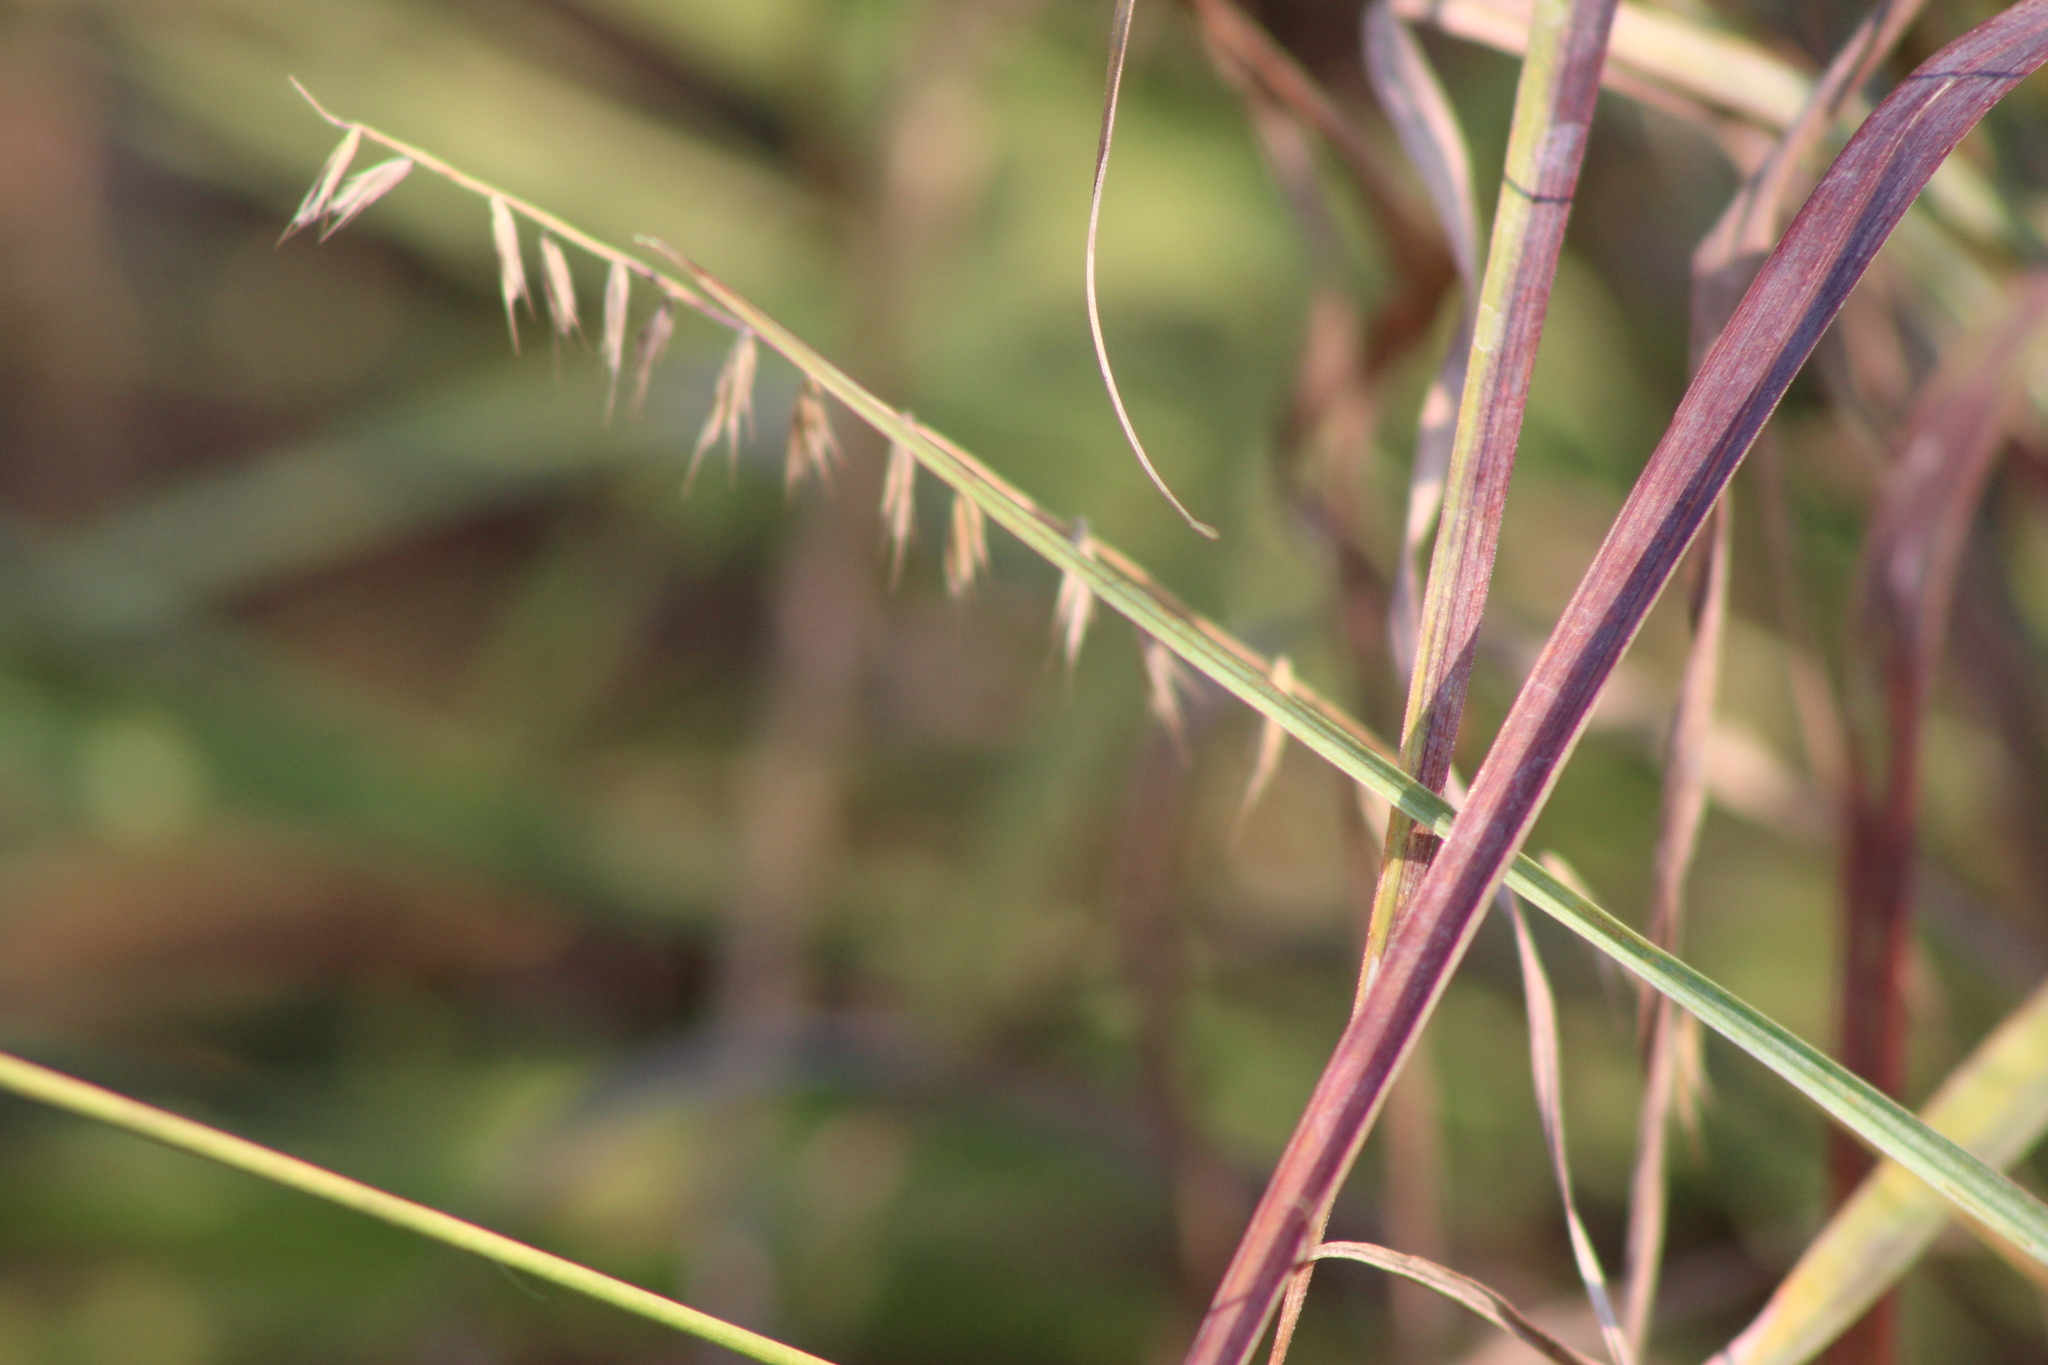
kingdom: Plantae
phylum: Tracheophyta
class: Liliopsida
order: Poales
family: Poaceae
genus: Bouteloua
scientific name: Bouteloua curtipendula
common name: Side-oats grama
